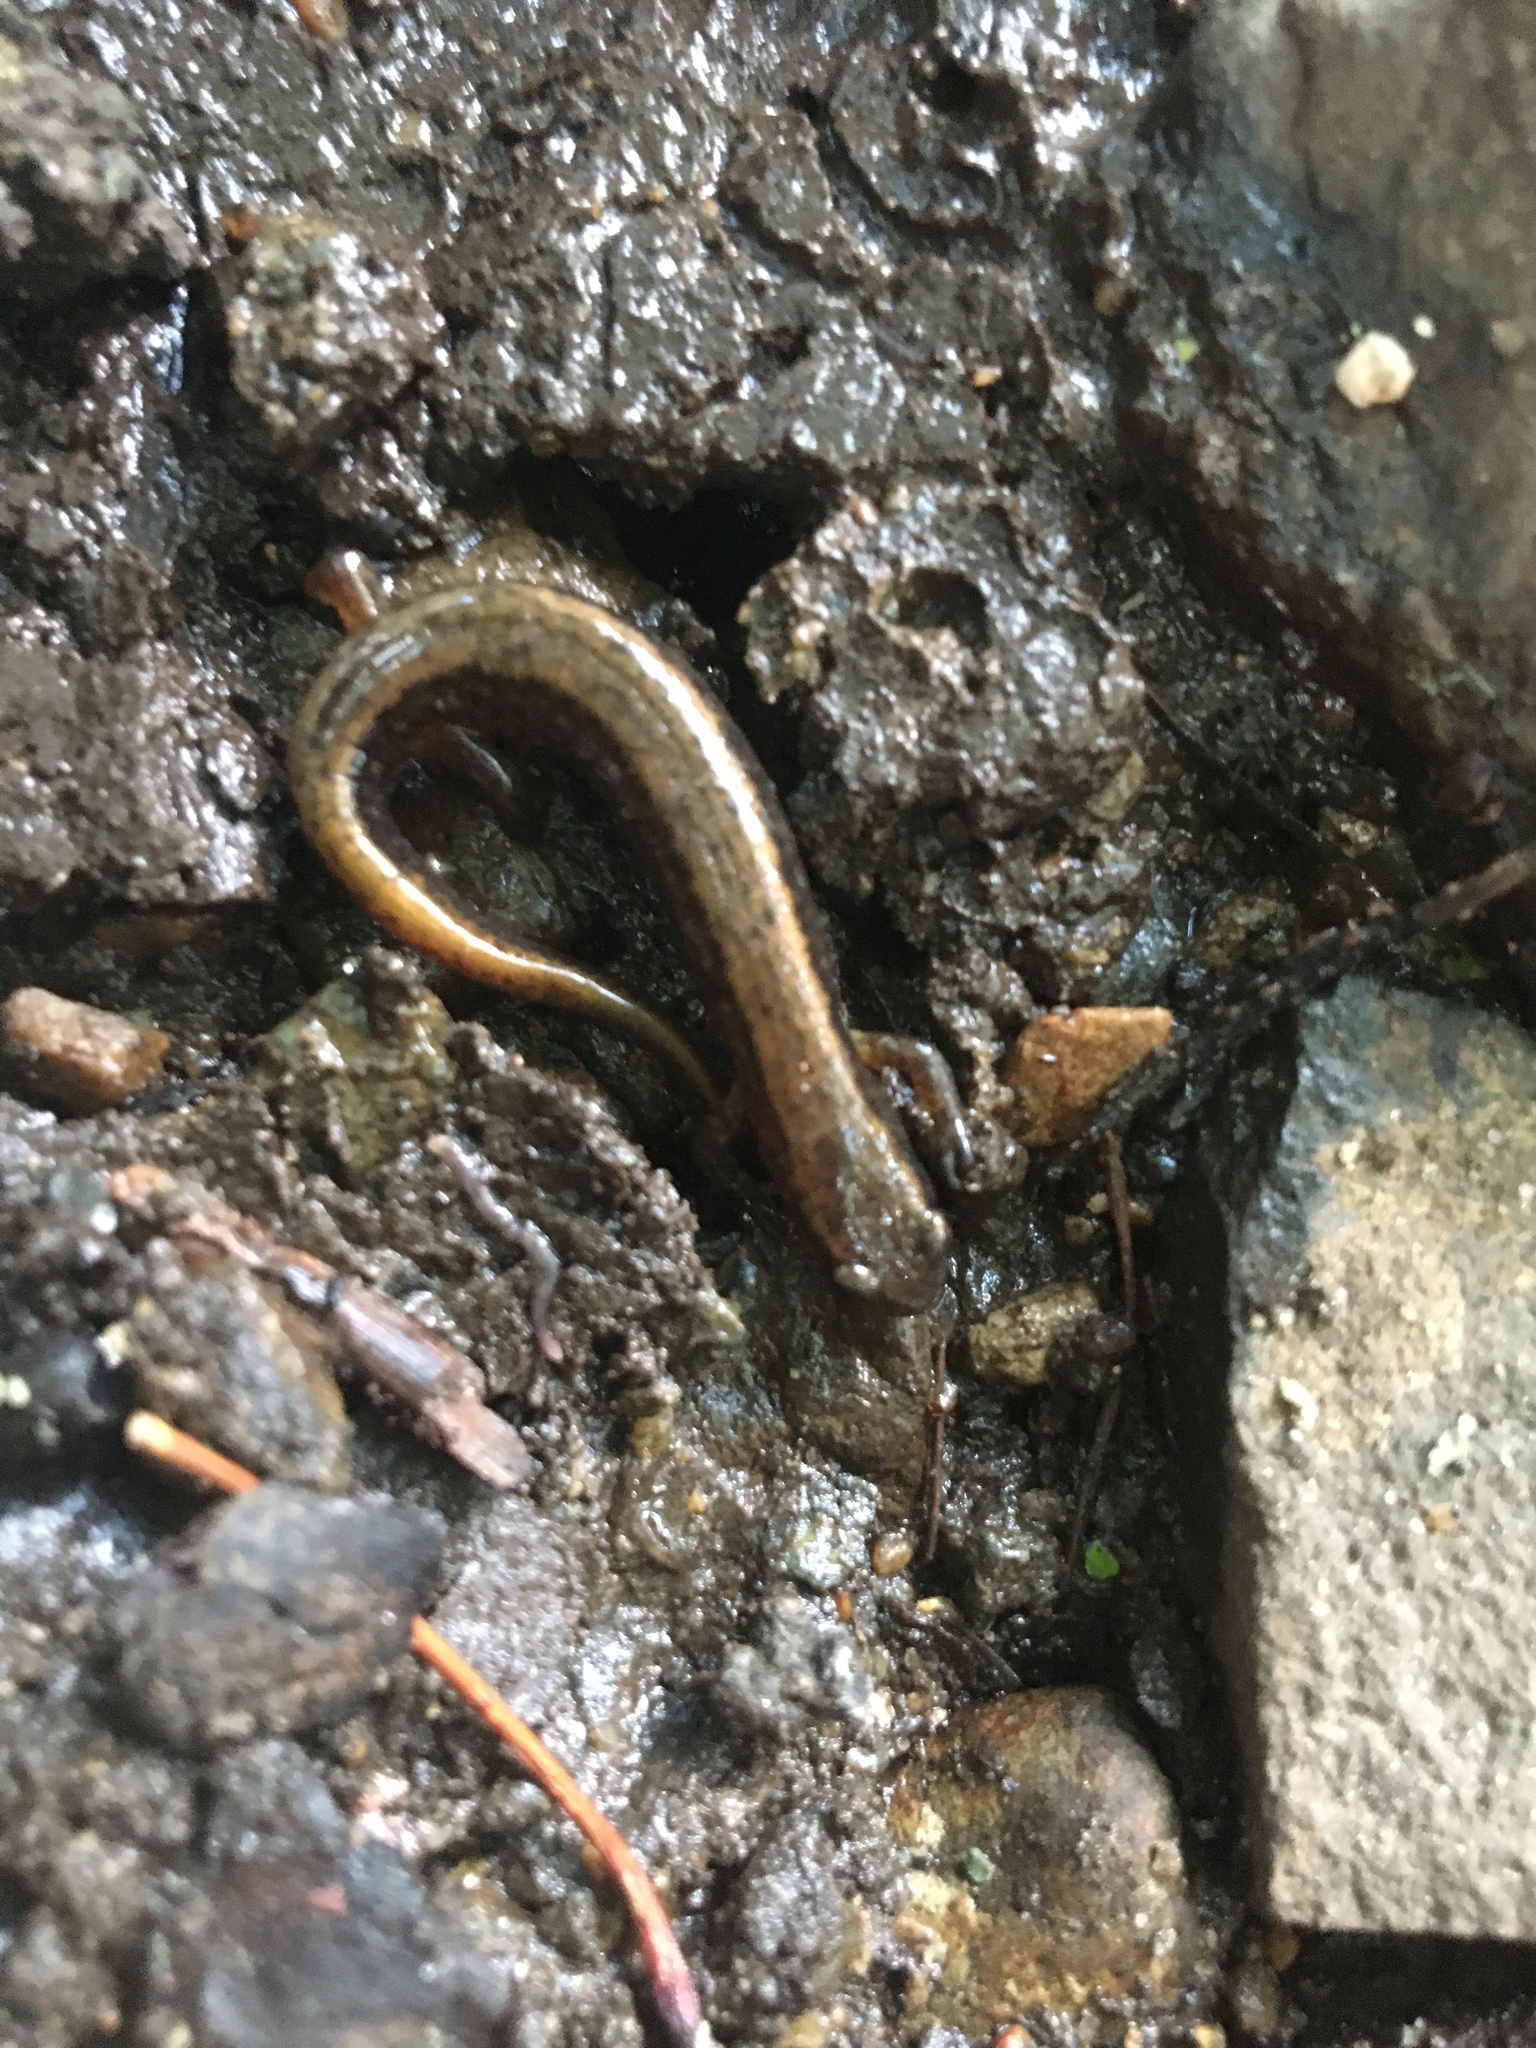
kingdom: Animalia
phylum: Chordata
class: Amphibia
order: Caudata
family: Plethodontidae
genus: Eurycea
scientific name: Eurycea bislineata
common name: Northern two-lined salamander
